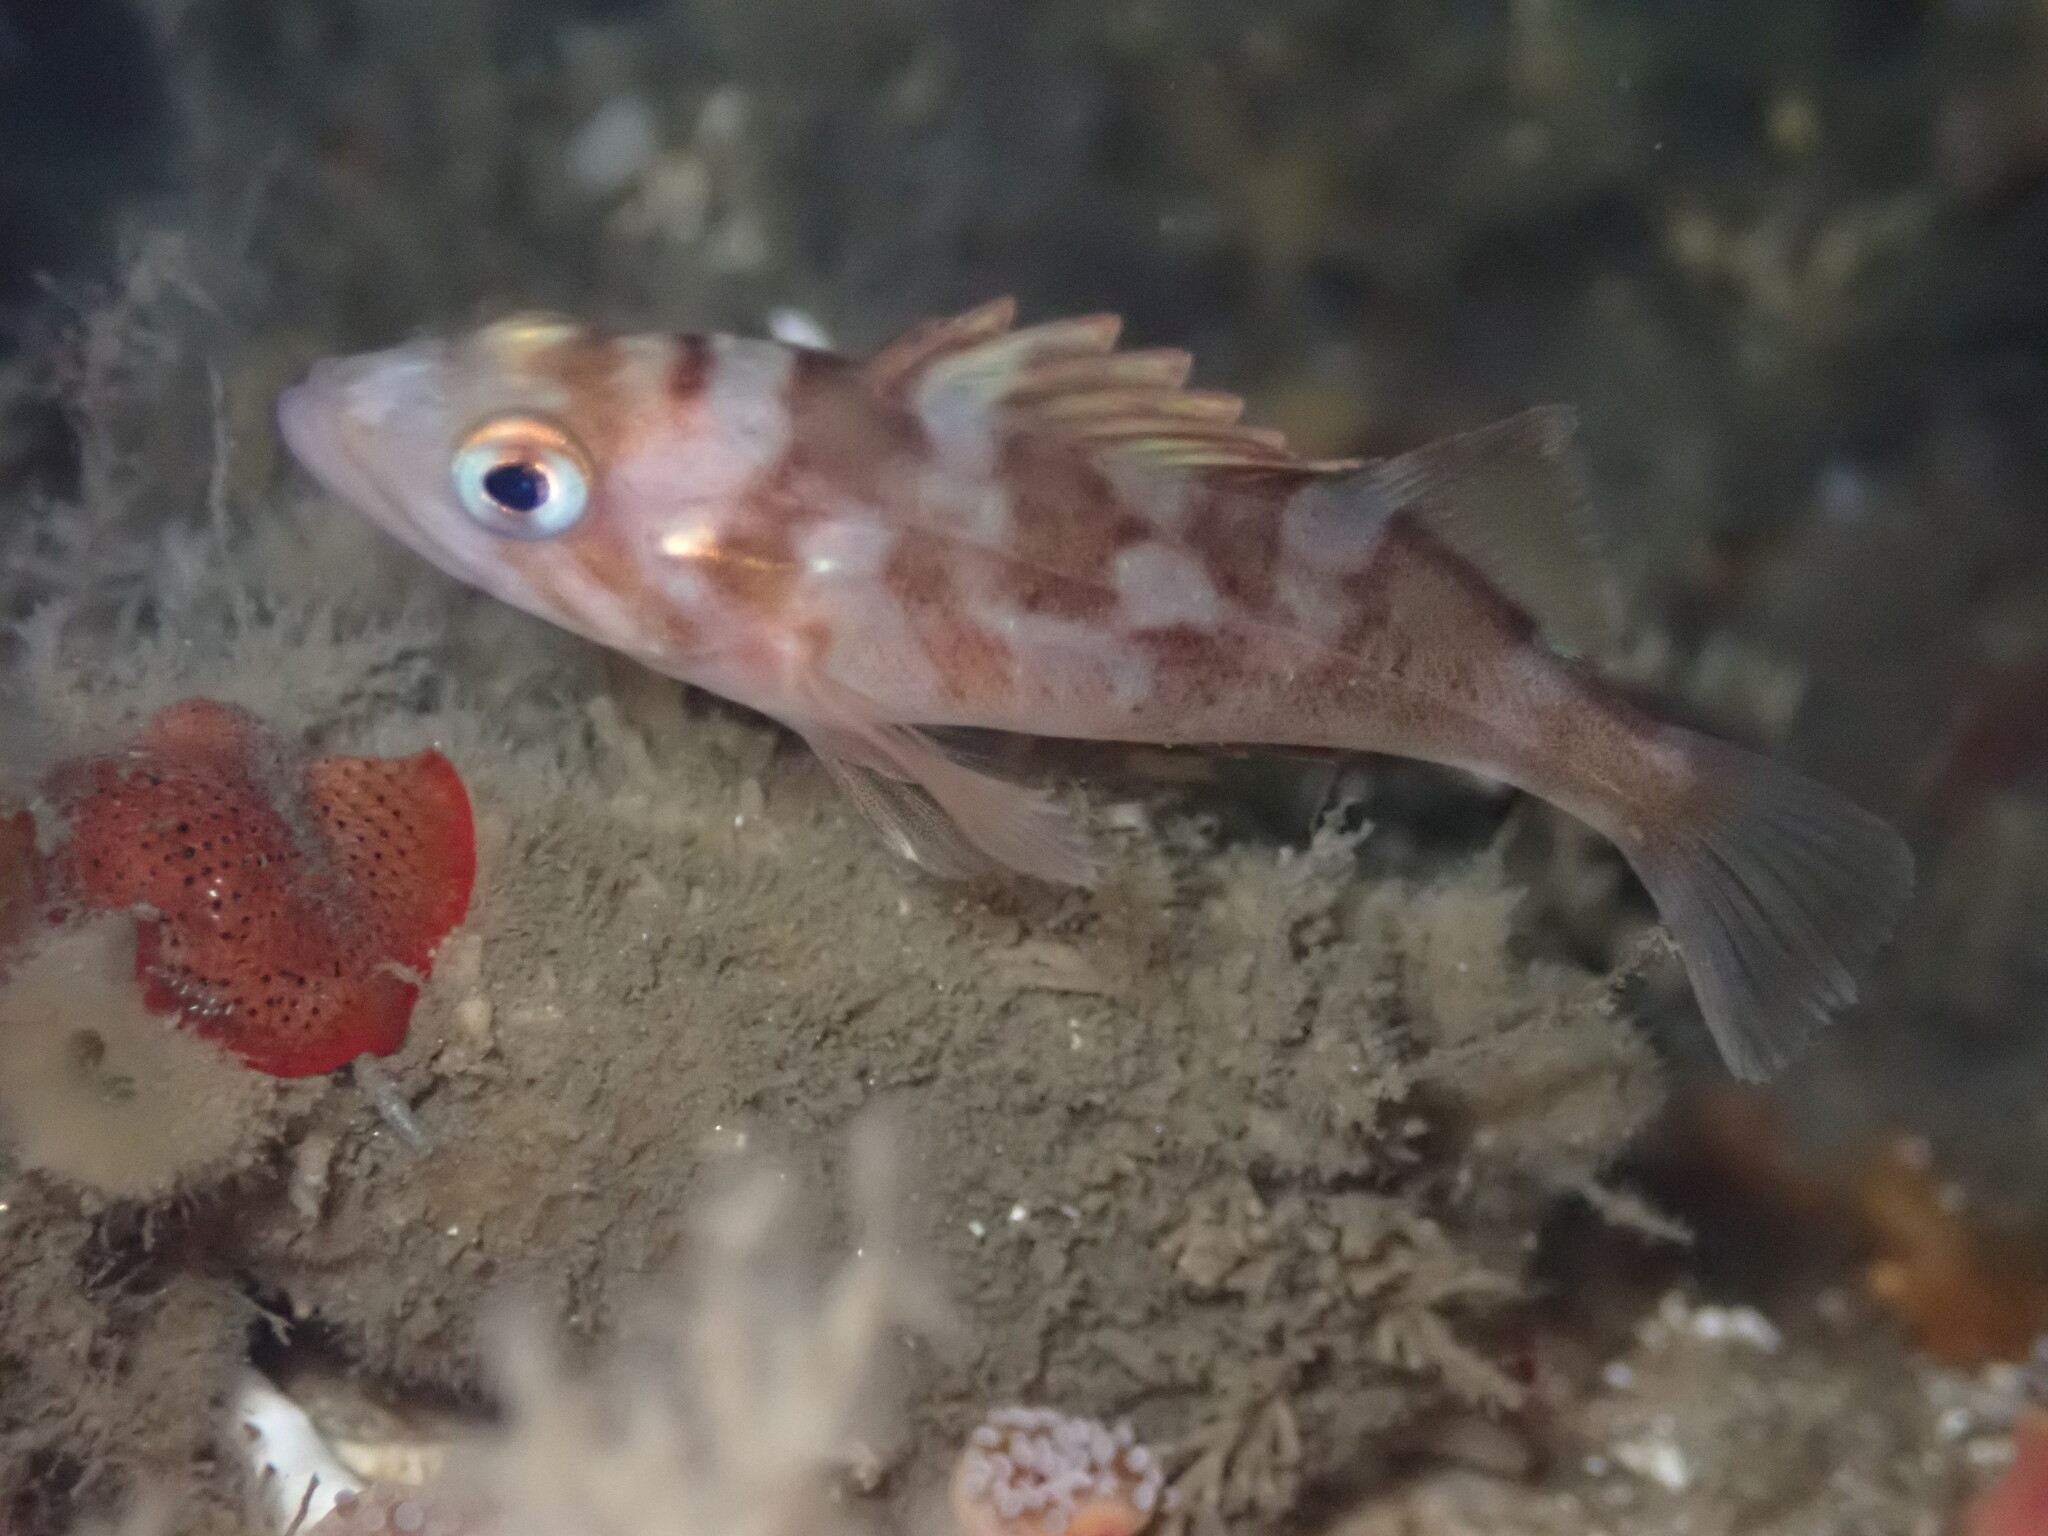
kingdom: Animalia
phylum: Chordata
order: Scorpaeniformes
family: Sebastidae
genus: Sebastes
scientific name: Sebastes caurinus
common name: Copper rockfish
